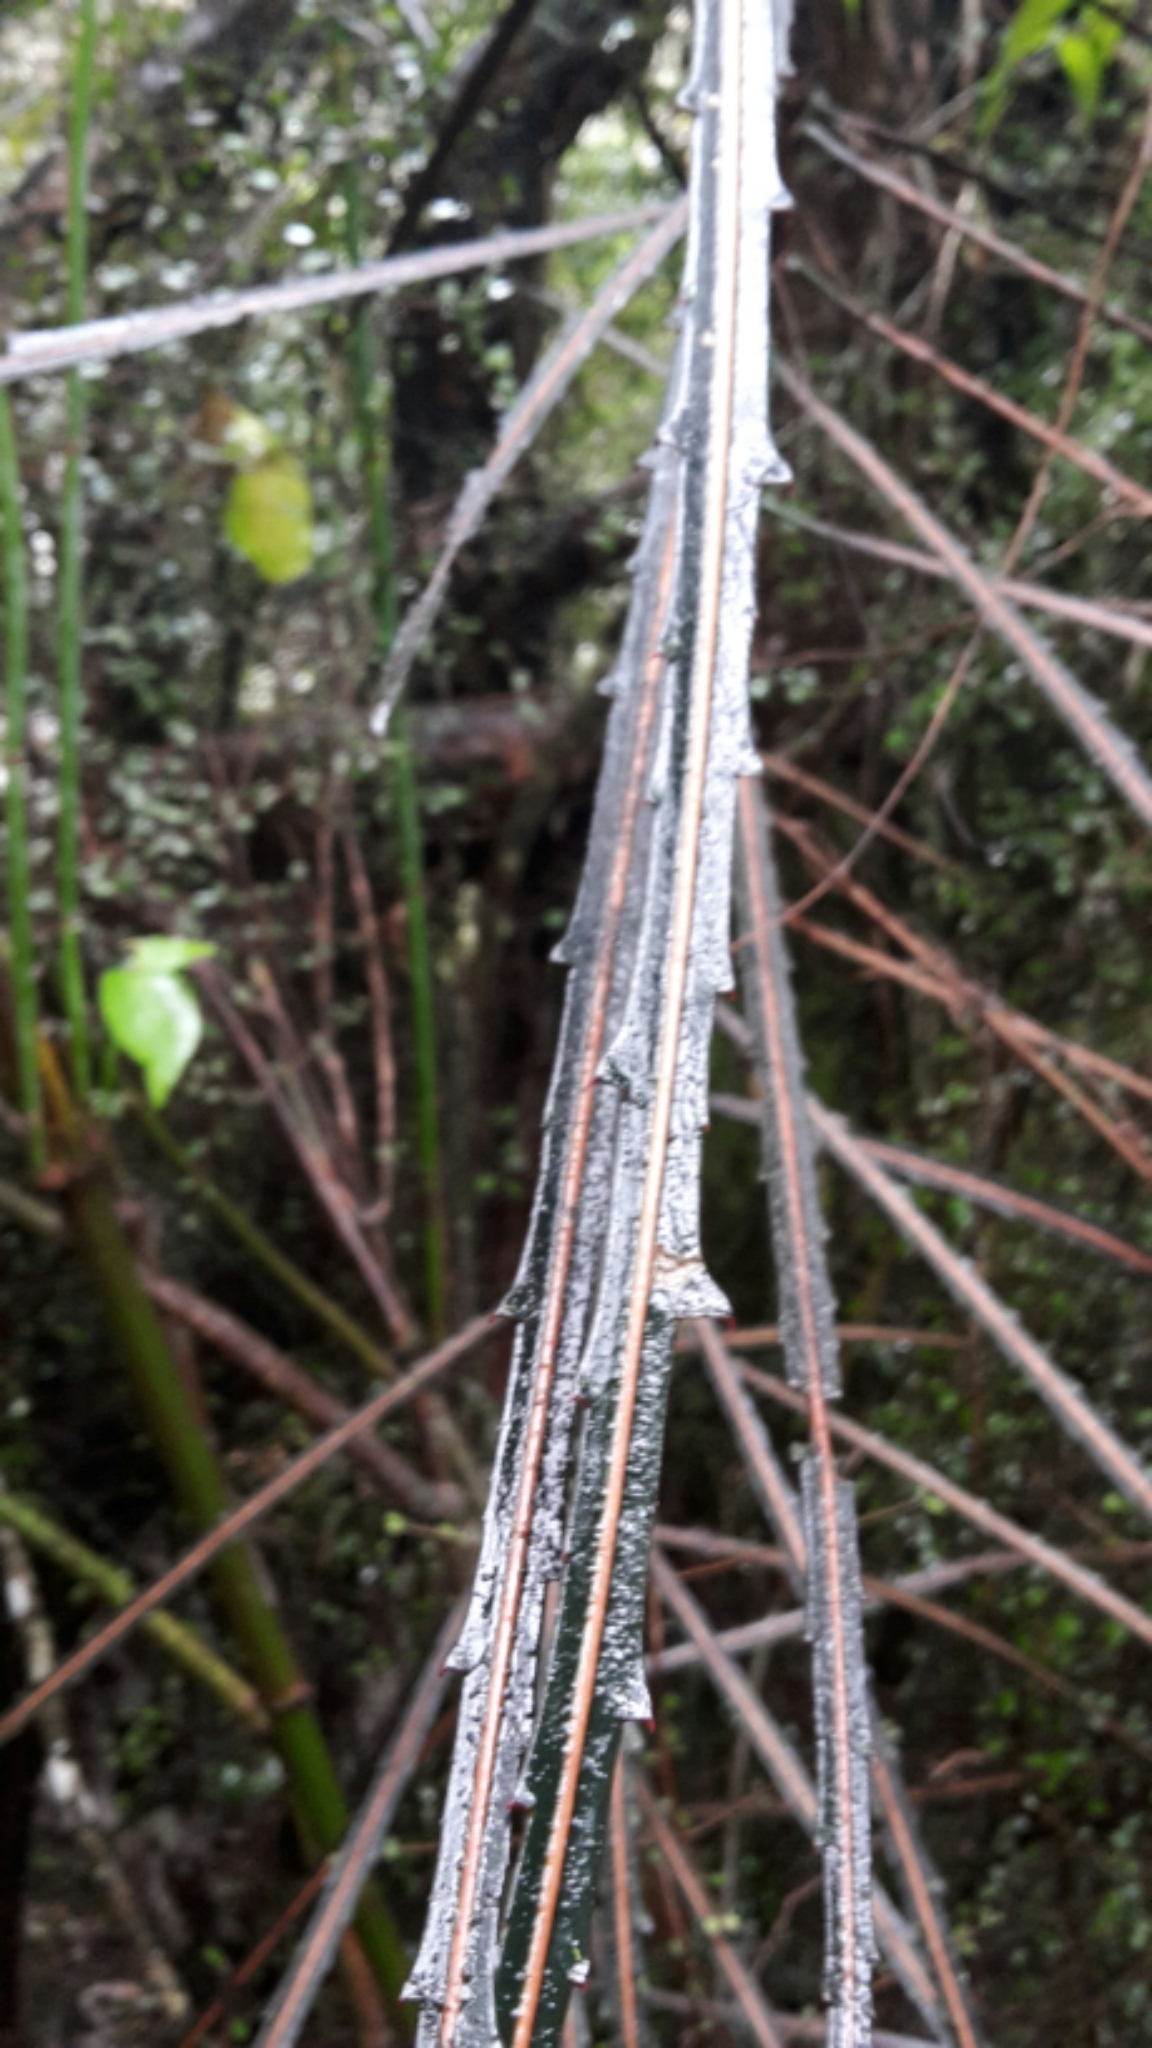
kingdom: Plantae
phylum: Tracheophyta
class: Magnoliopsida
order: Apiales
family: Araliaceae
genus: Pseudopanax
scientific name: Pseudopanax crassifolius
